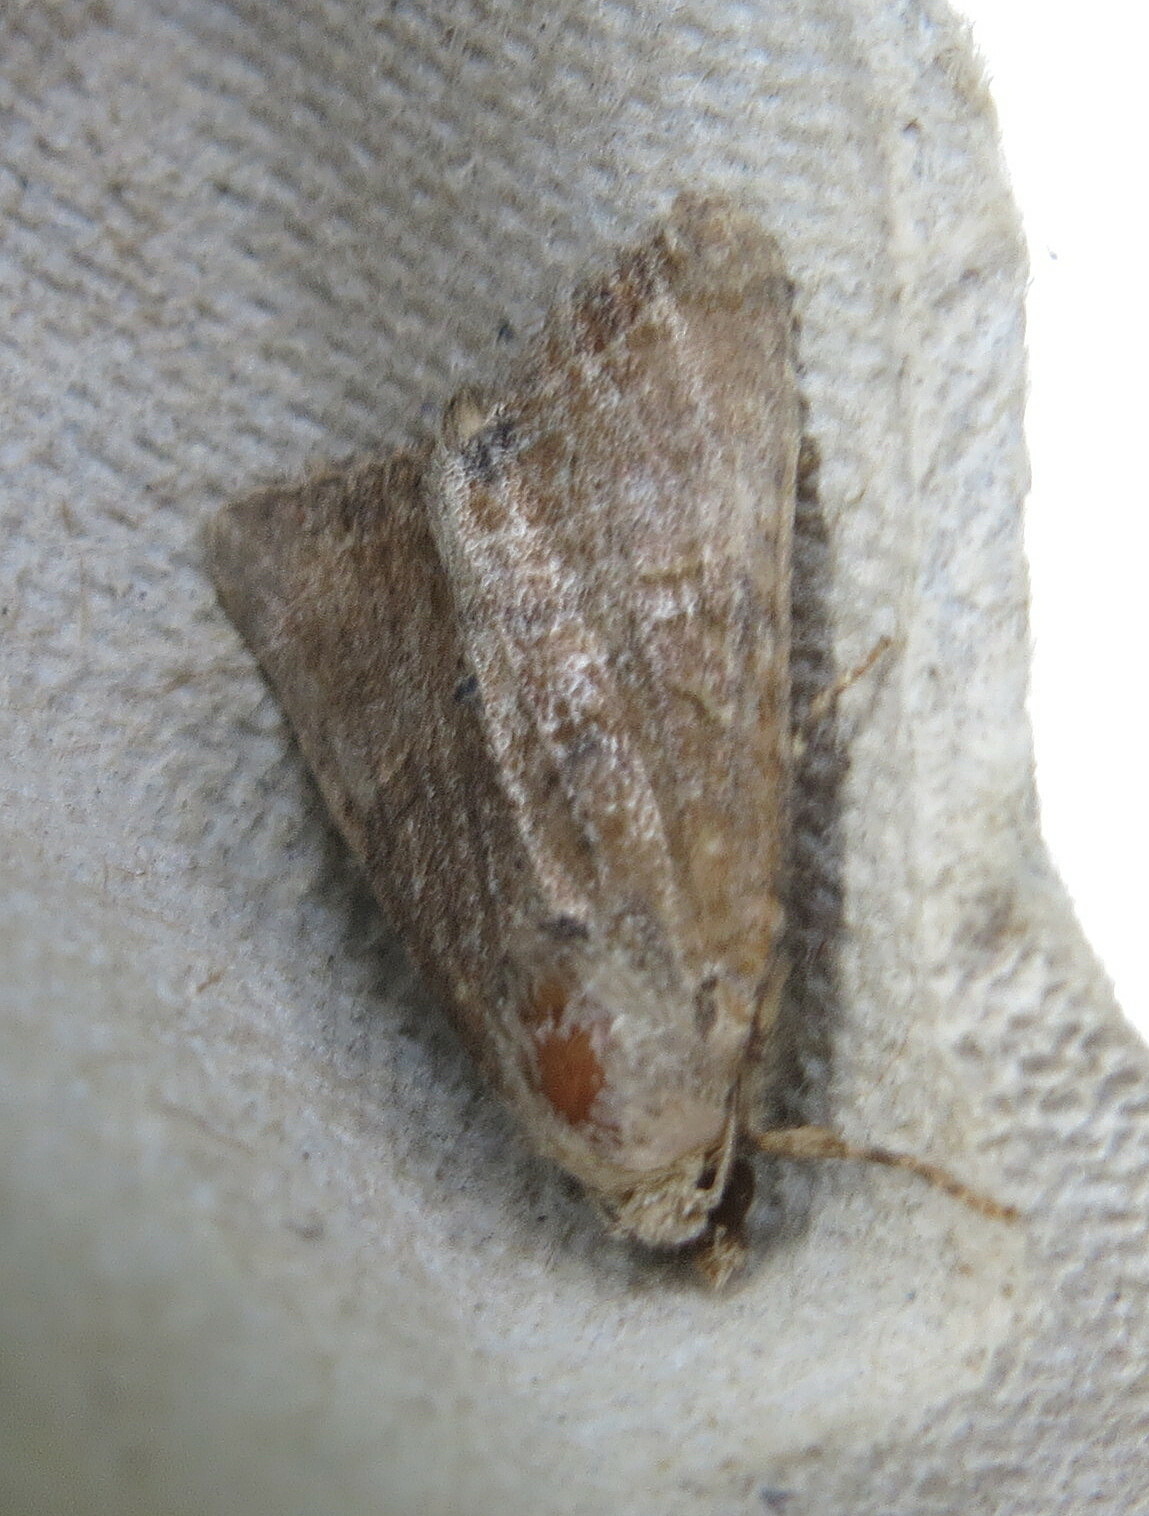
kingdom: Animalia
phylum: Arthropoda
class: Insecta
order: Lepidoptera
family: Noctuidae
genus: Mesoligia
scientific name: Mesoligia furuncula
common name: Cloaked minor
